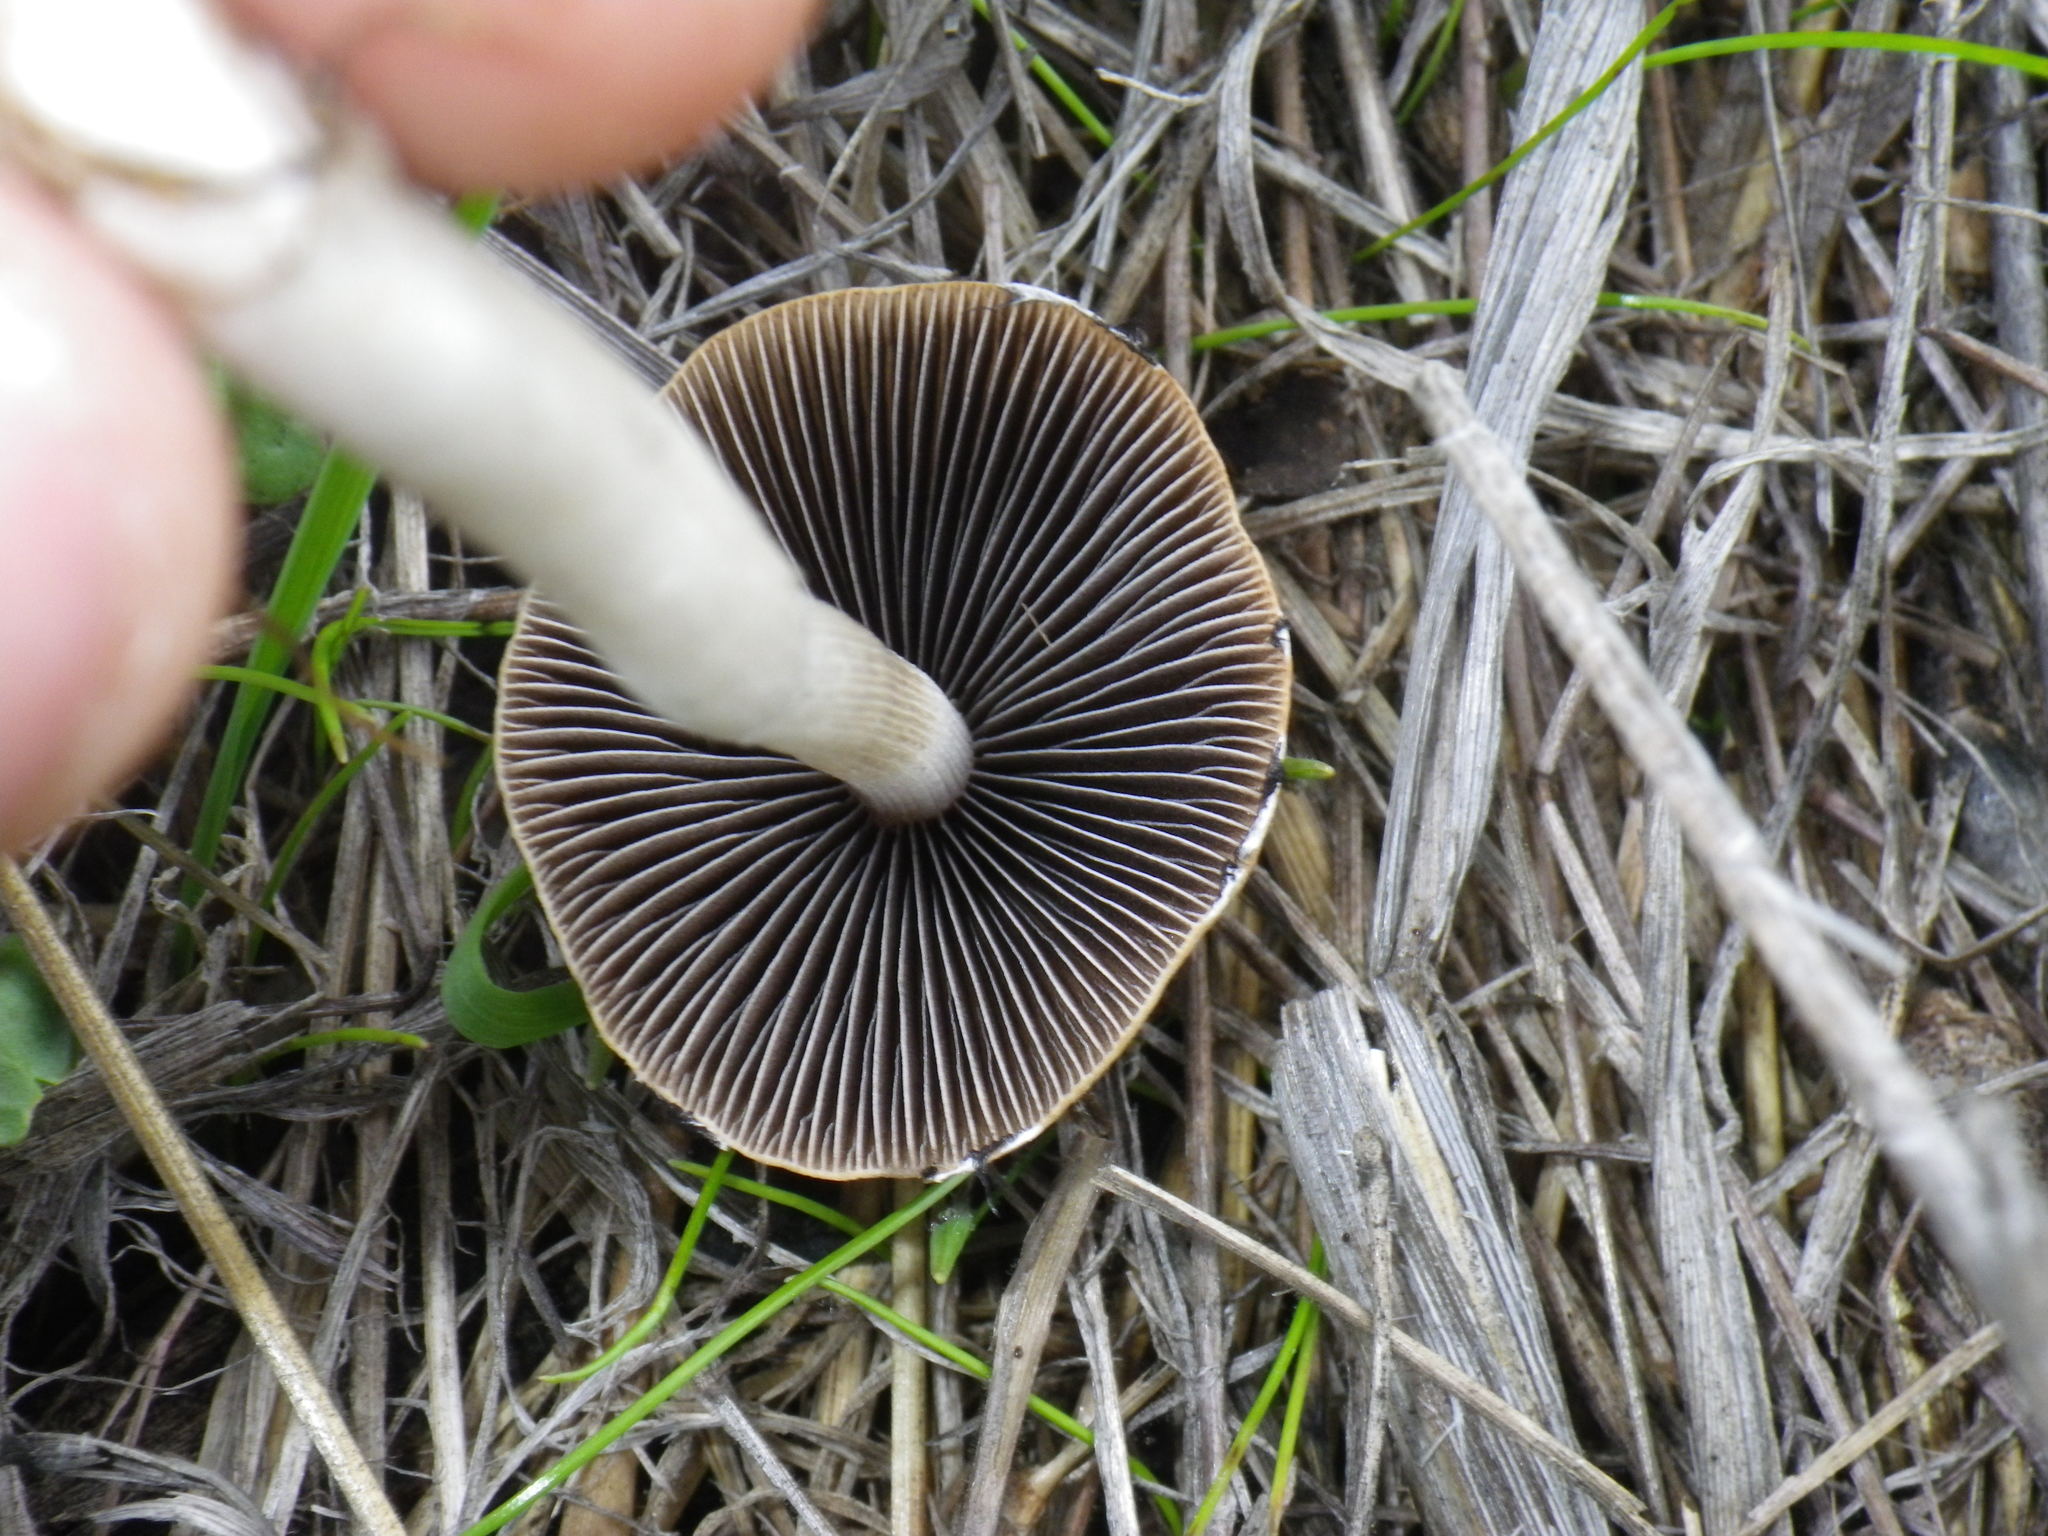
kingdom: Fungi
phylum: Basidiomycota
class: Agaricomycetes
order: Agaricales
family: Psathyrellaceae
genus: Psathyrella
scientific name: Psathyrella longipes
